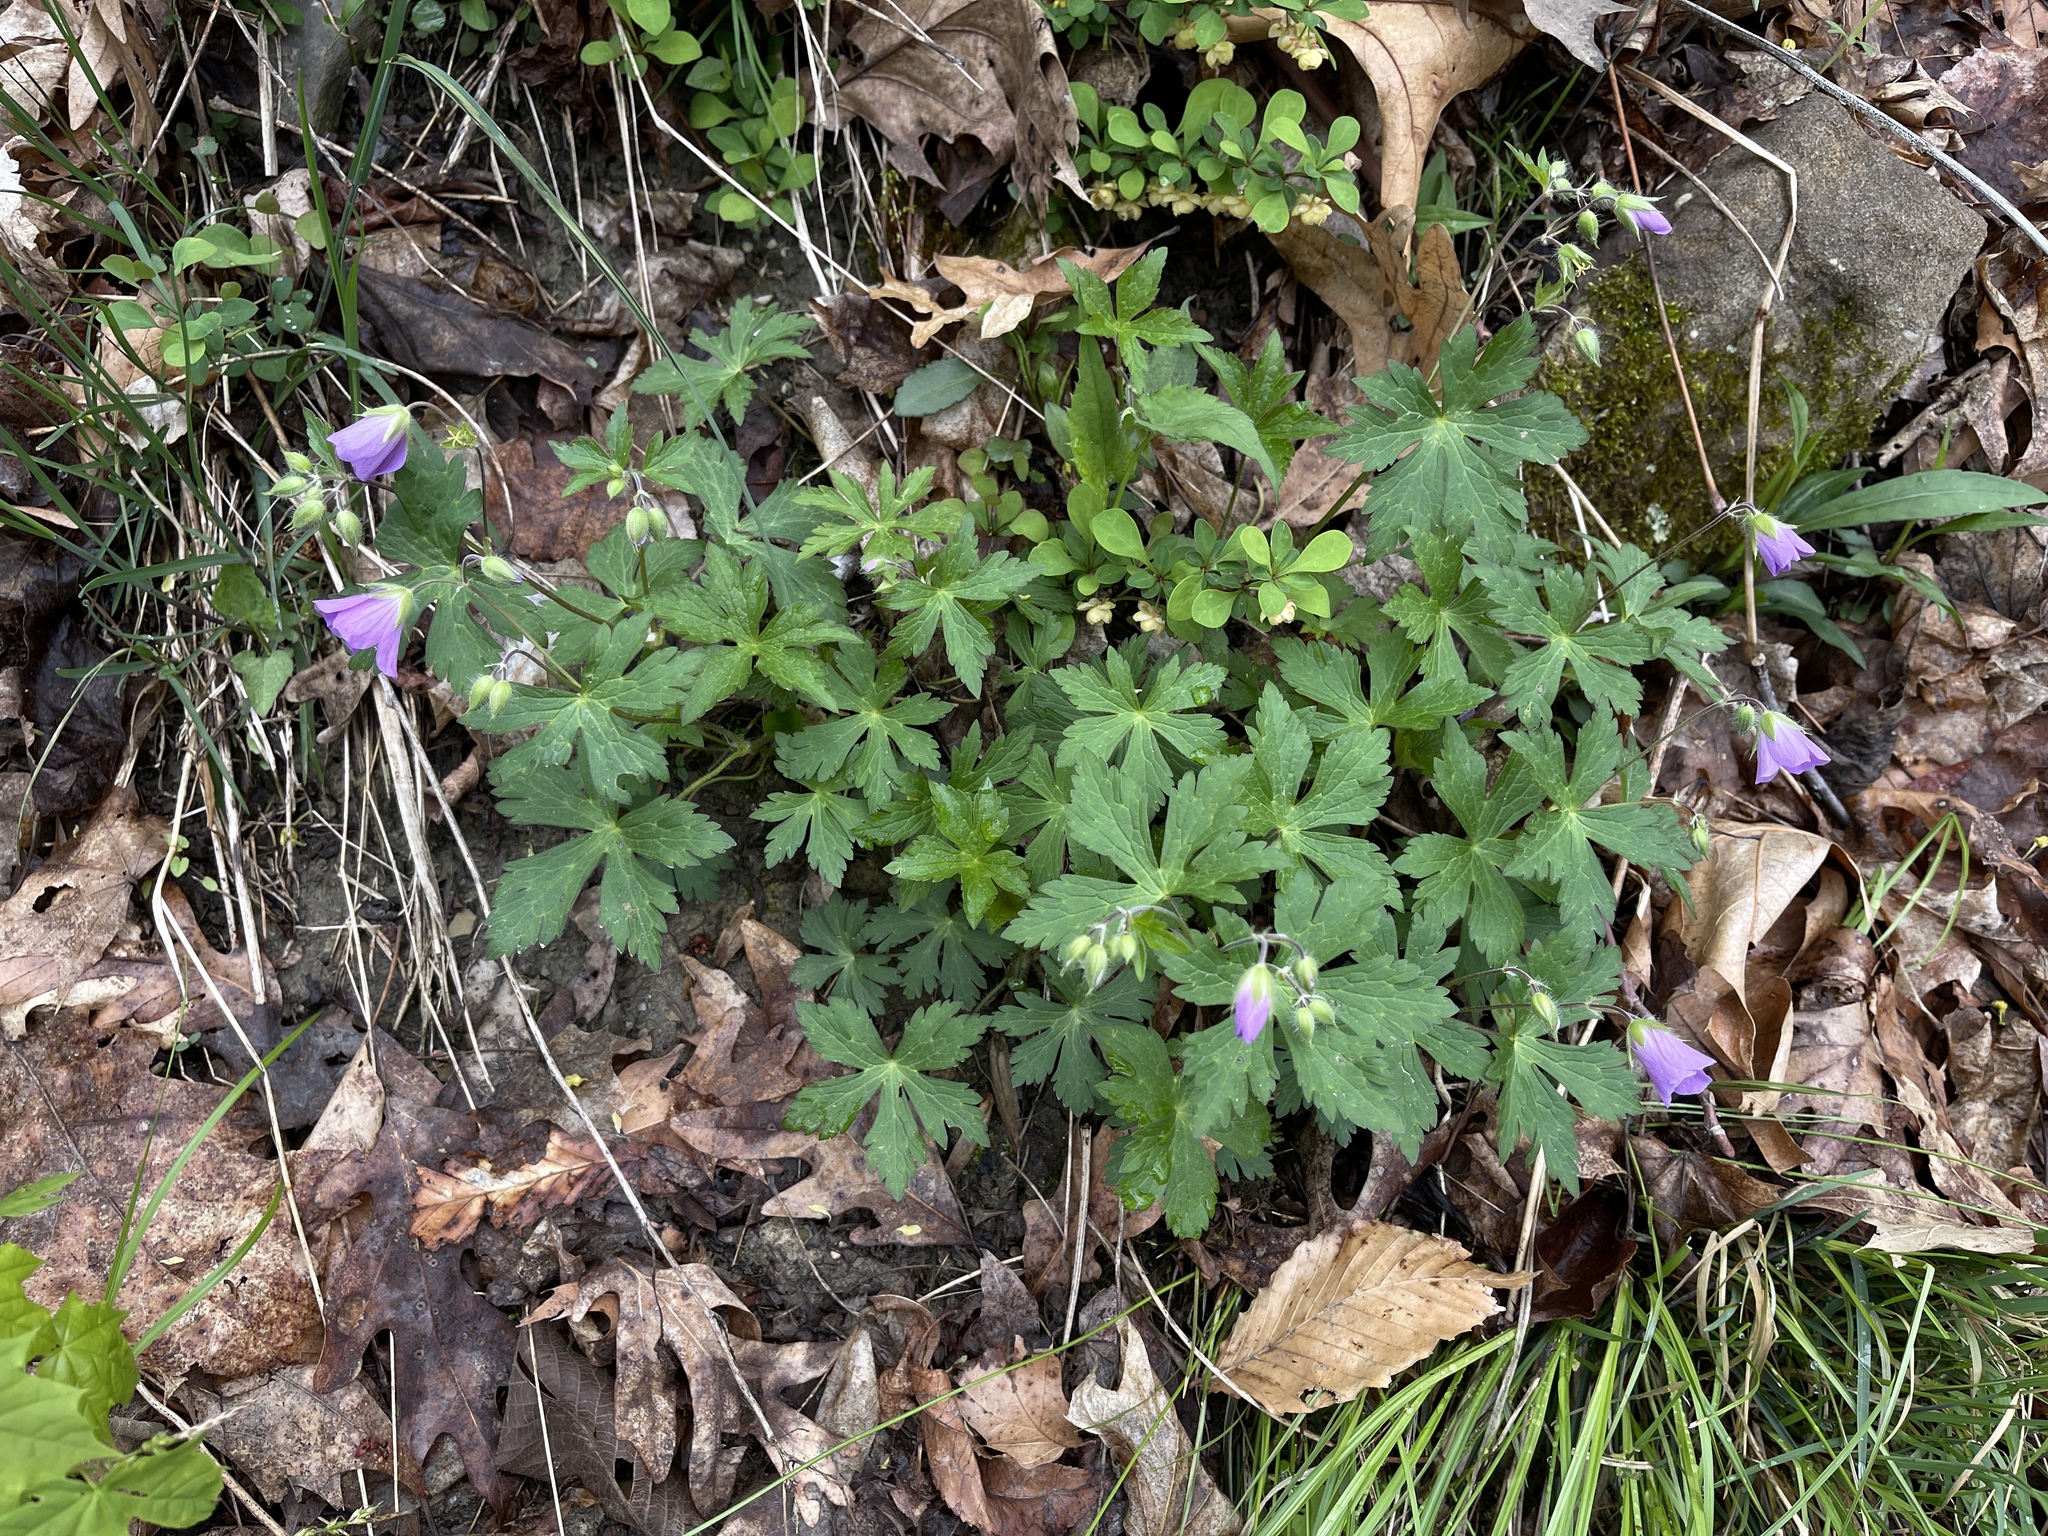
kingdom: Plantae
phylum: Tracheophyta
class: Magnoliopsida
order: Geraniales
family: Geraniaceae
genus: Geranium
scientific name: Geranium maculatum
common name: Spotted geranium
